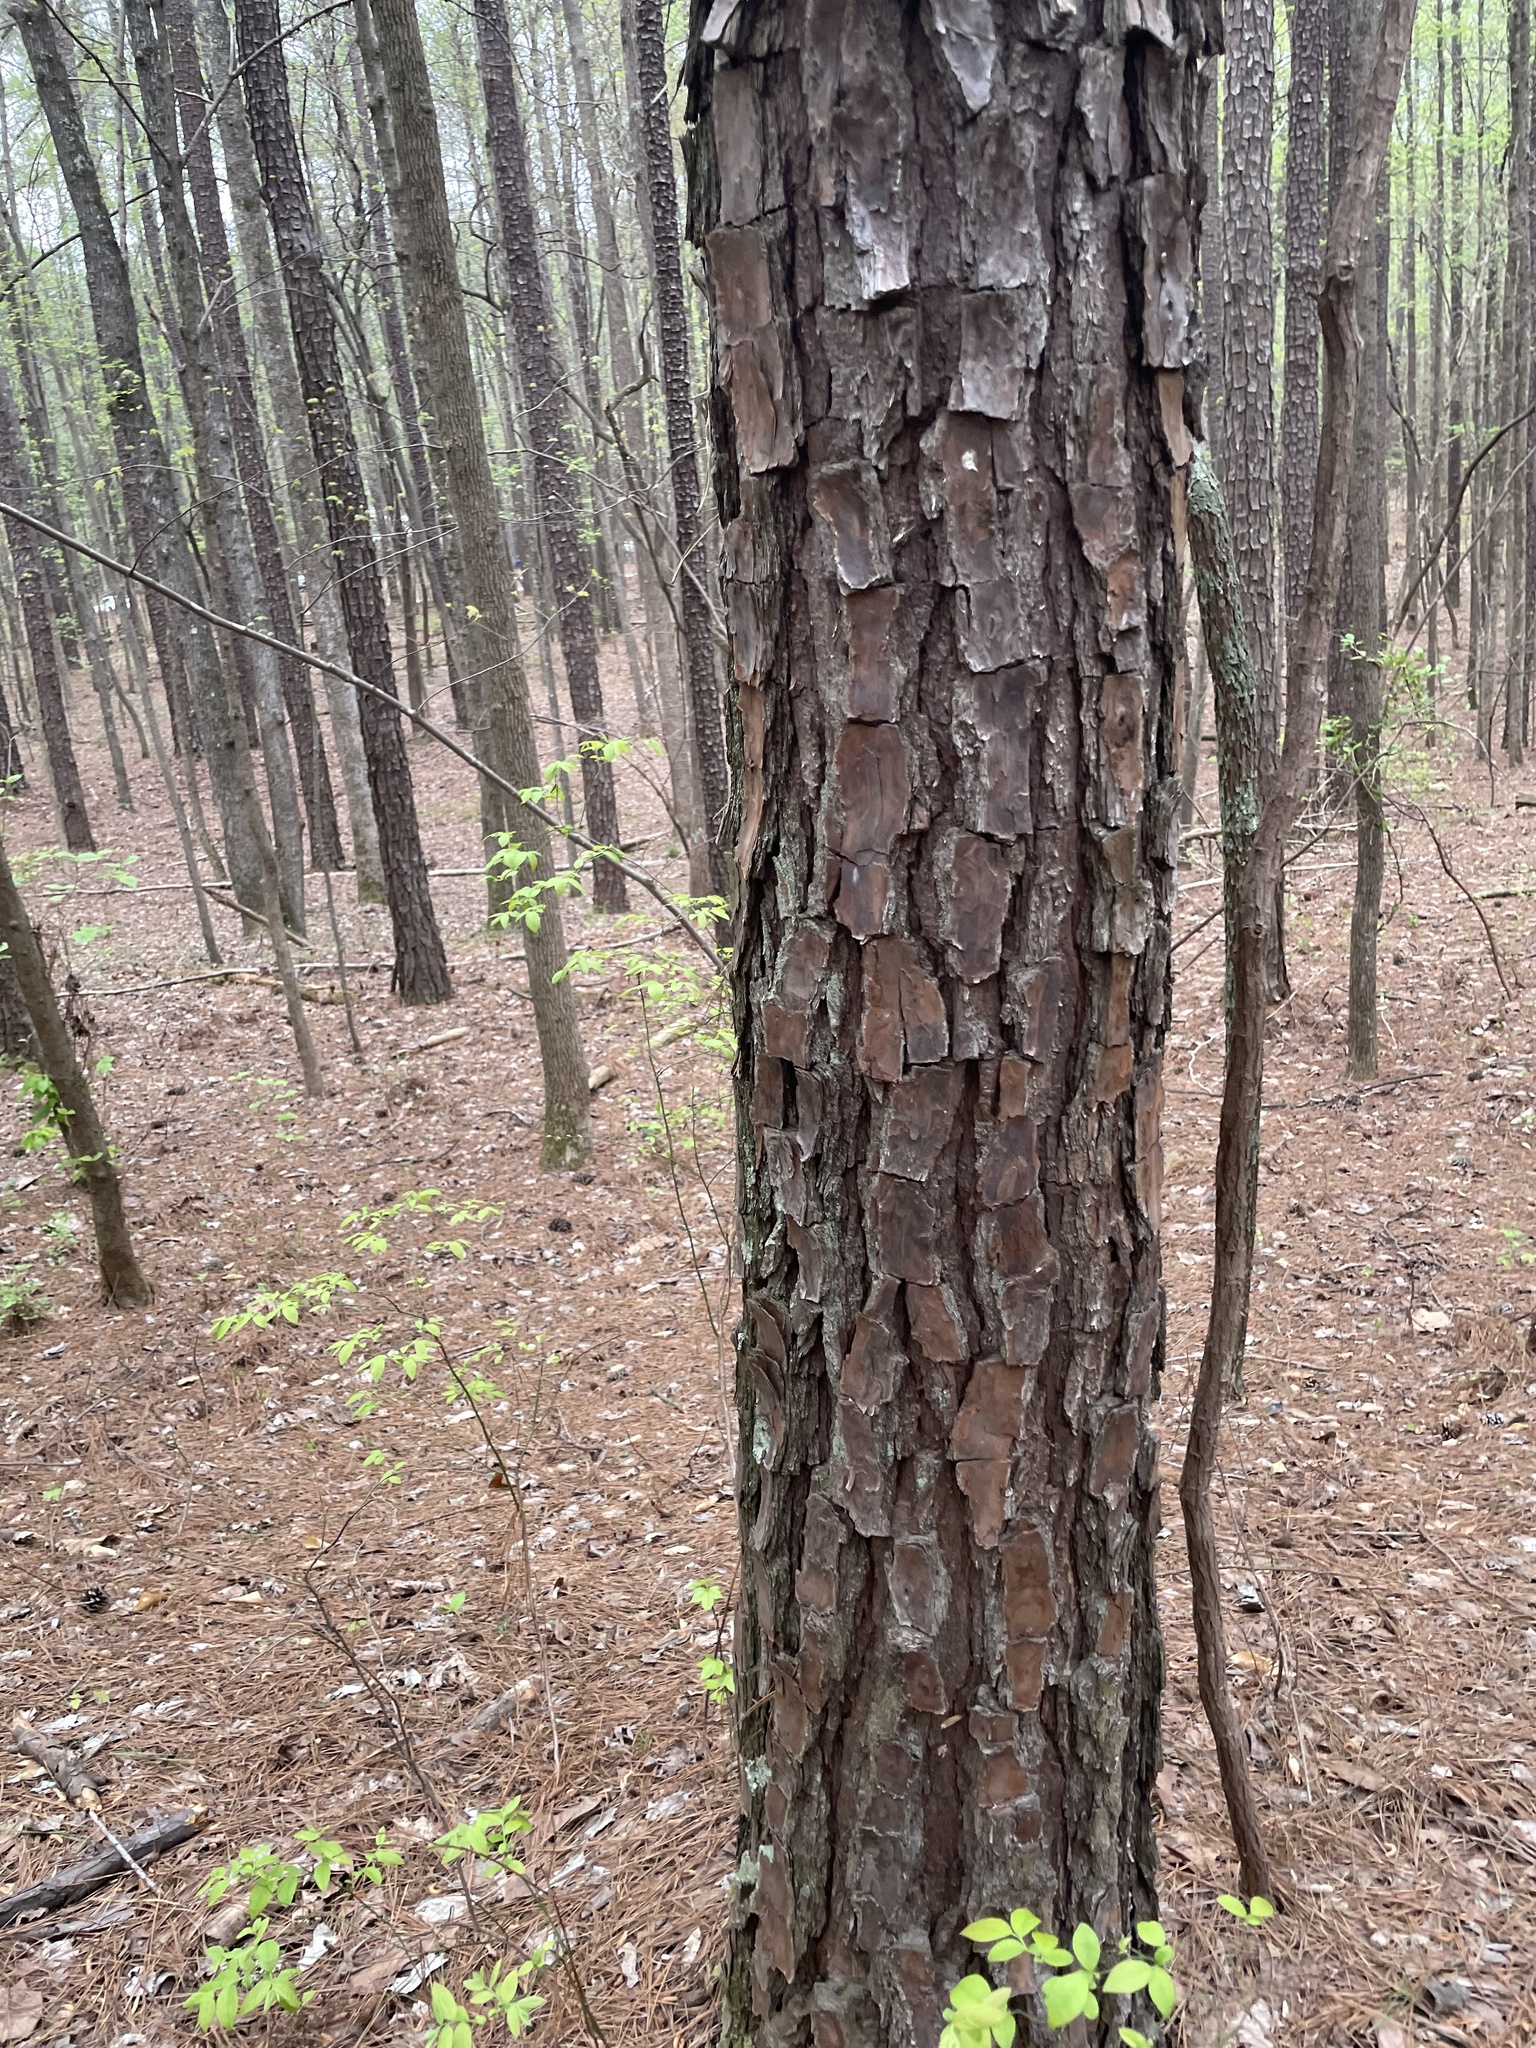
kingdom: Plantae
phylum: Tracheophyta
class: Pinopsida
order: Pinales
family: Pinaceae
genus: Pinus
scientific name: Pinus taeda
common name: Loblolly pine
